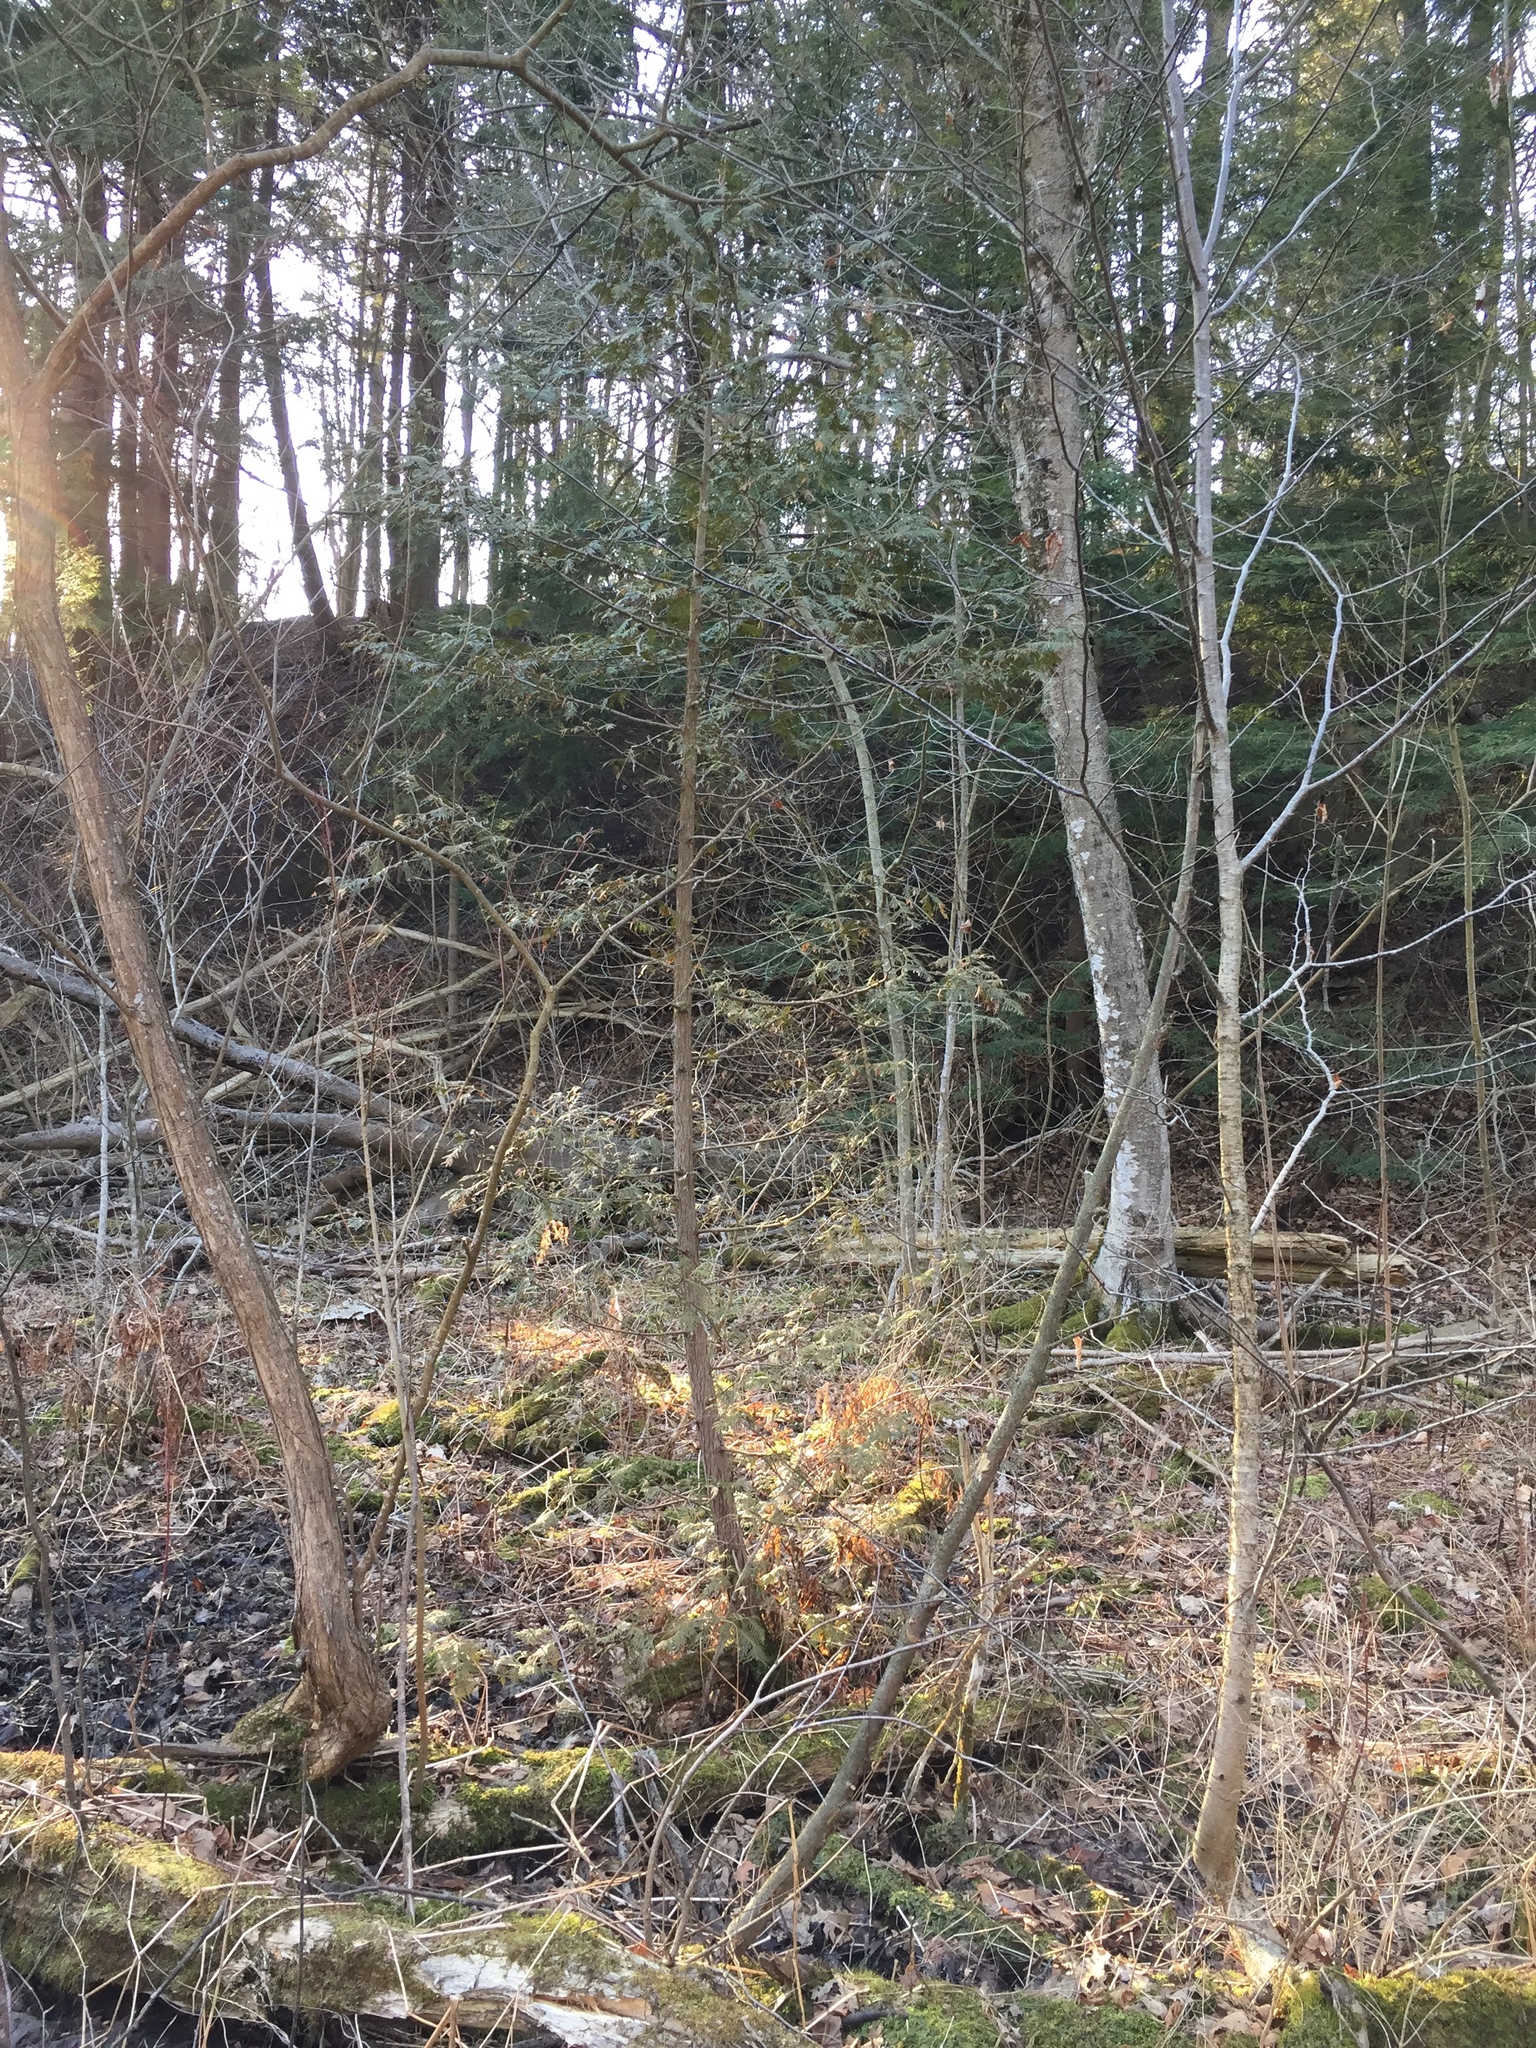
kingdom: Plantae
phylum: Tracheophyta
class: Pinopsida
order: Pinales
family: Cupressaceae
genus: Thuja
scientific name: Thuja occidentalis
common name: Northern white-cedar
